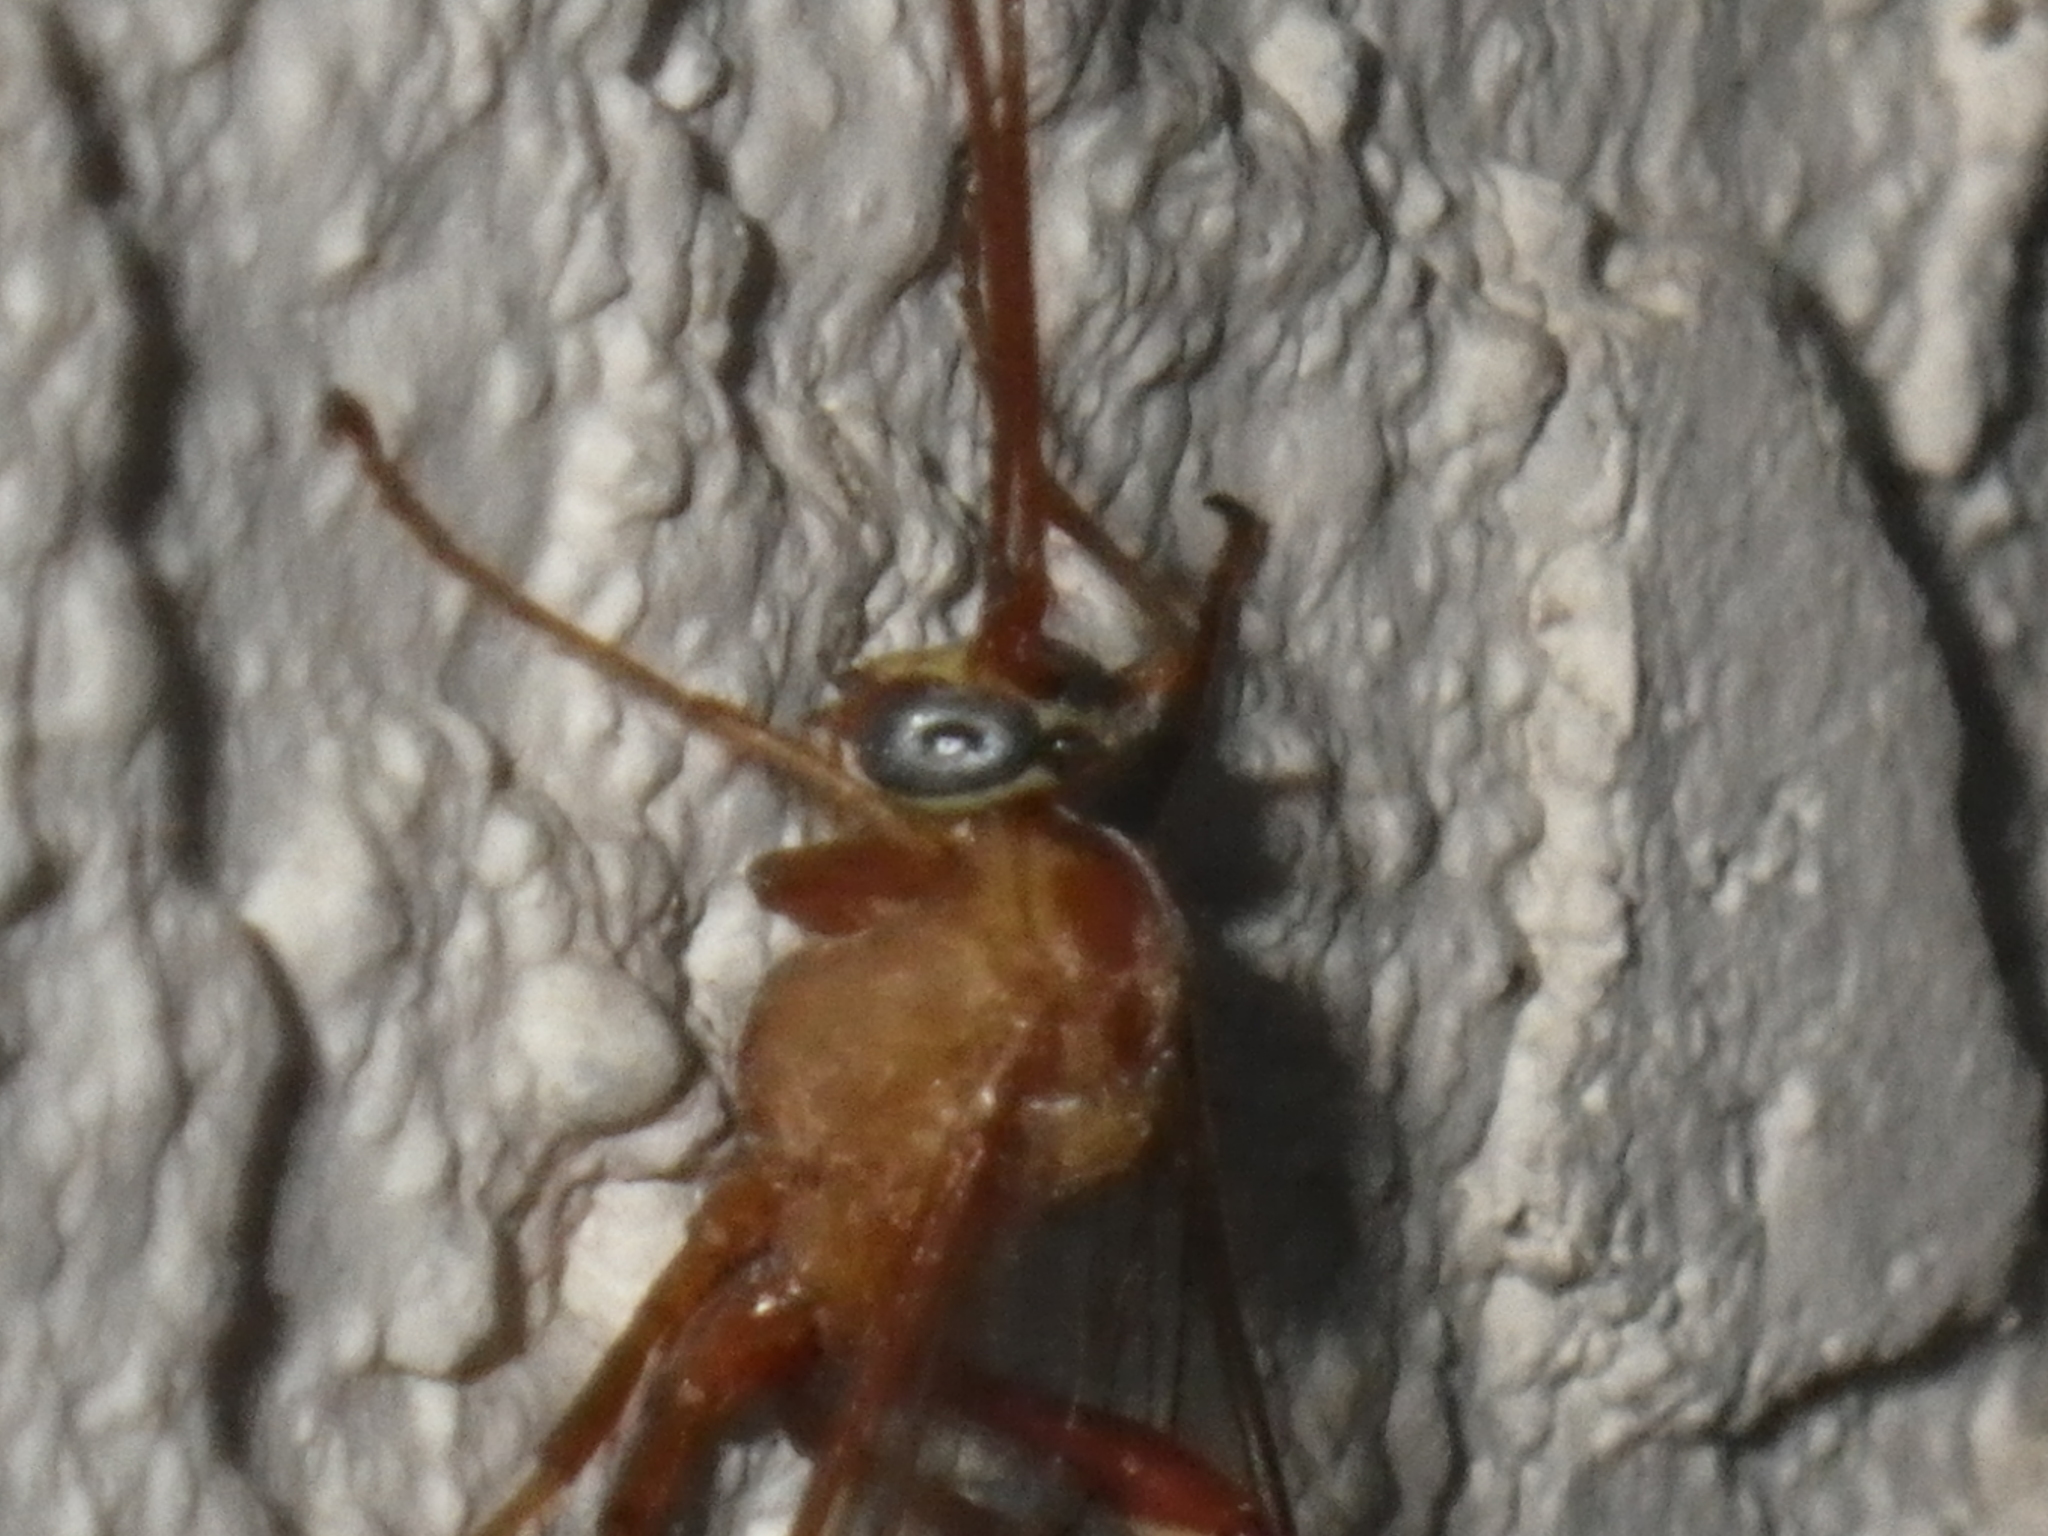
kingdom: Animalia
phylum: Arthropoda
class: Insecta
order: Hymenoptera
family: Ichneumonidae
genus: Enicospilus
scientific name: Enicospilus
